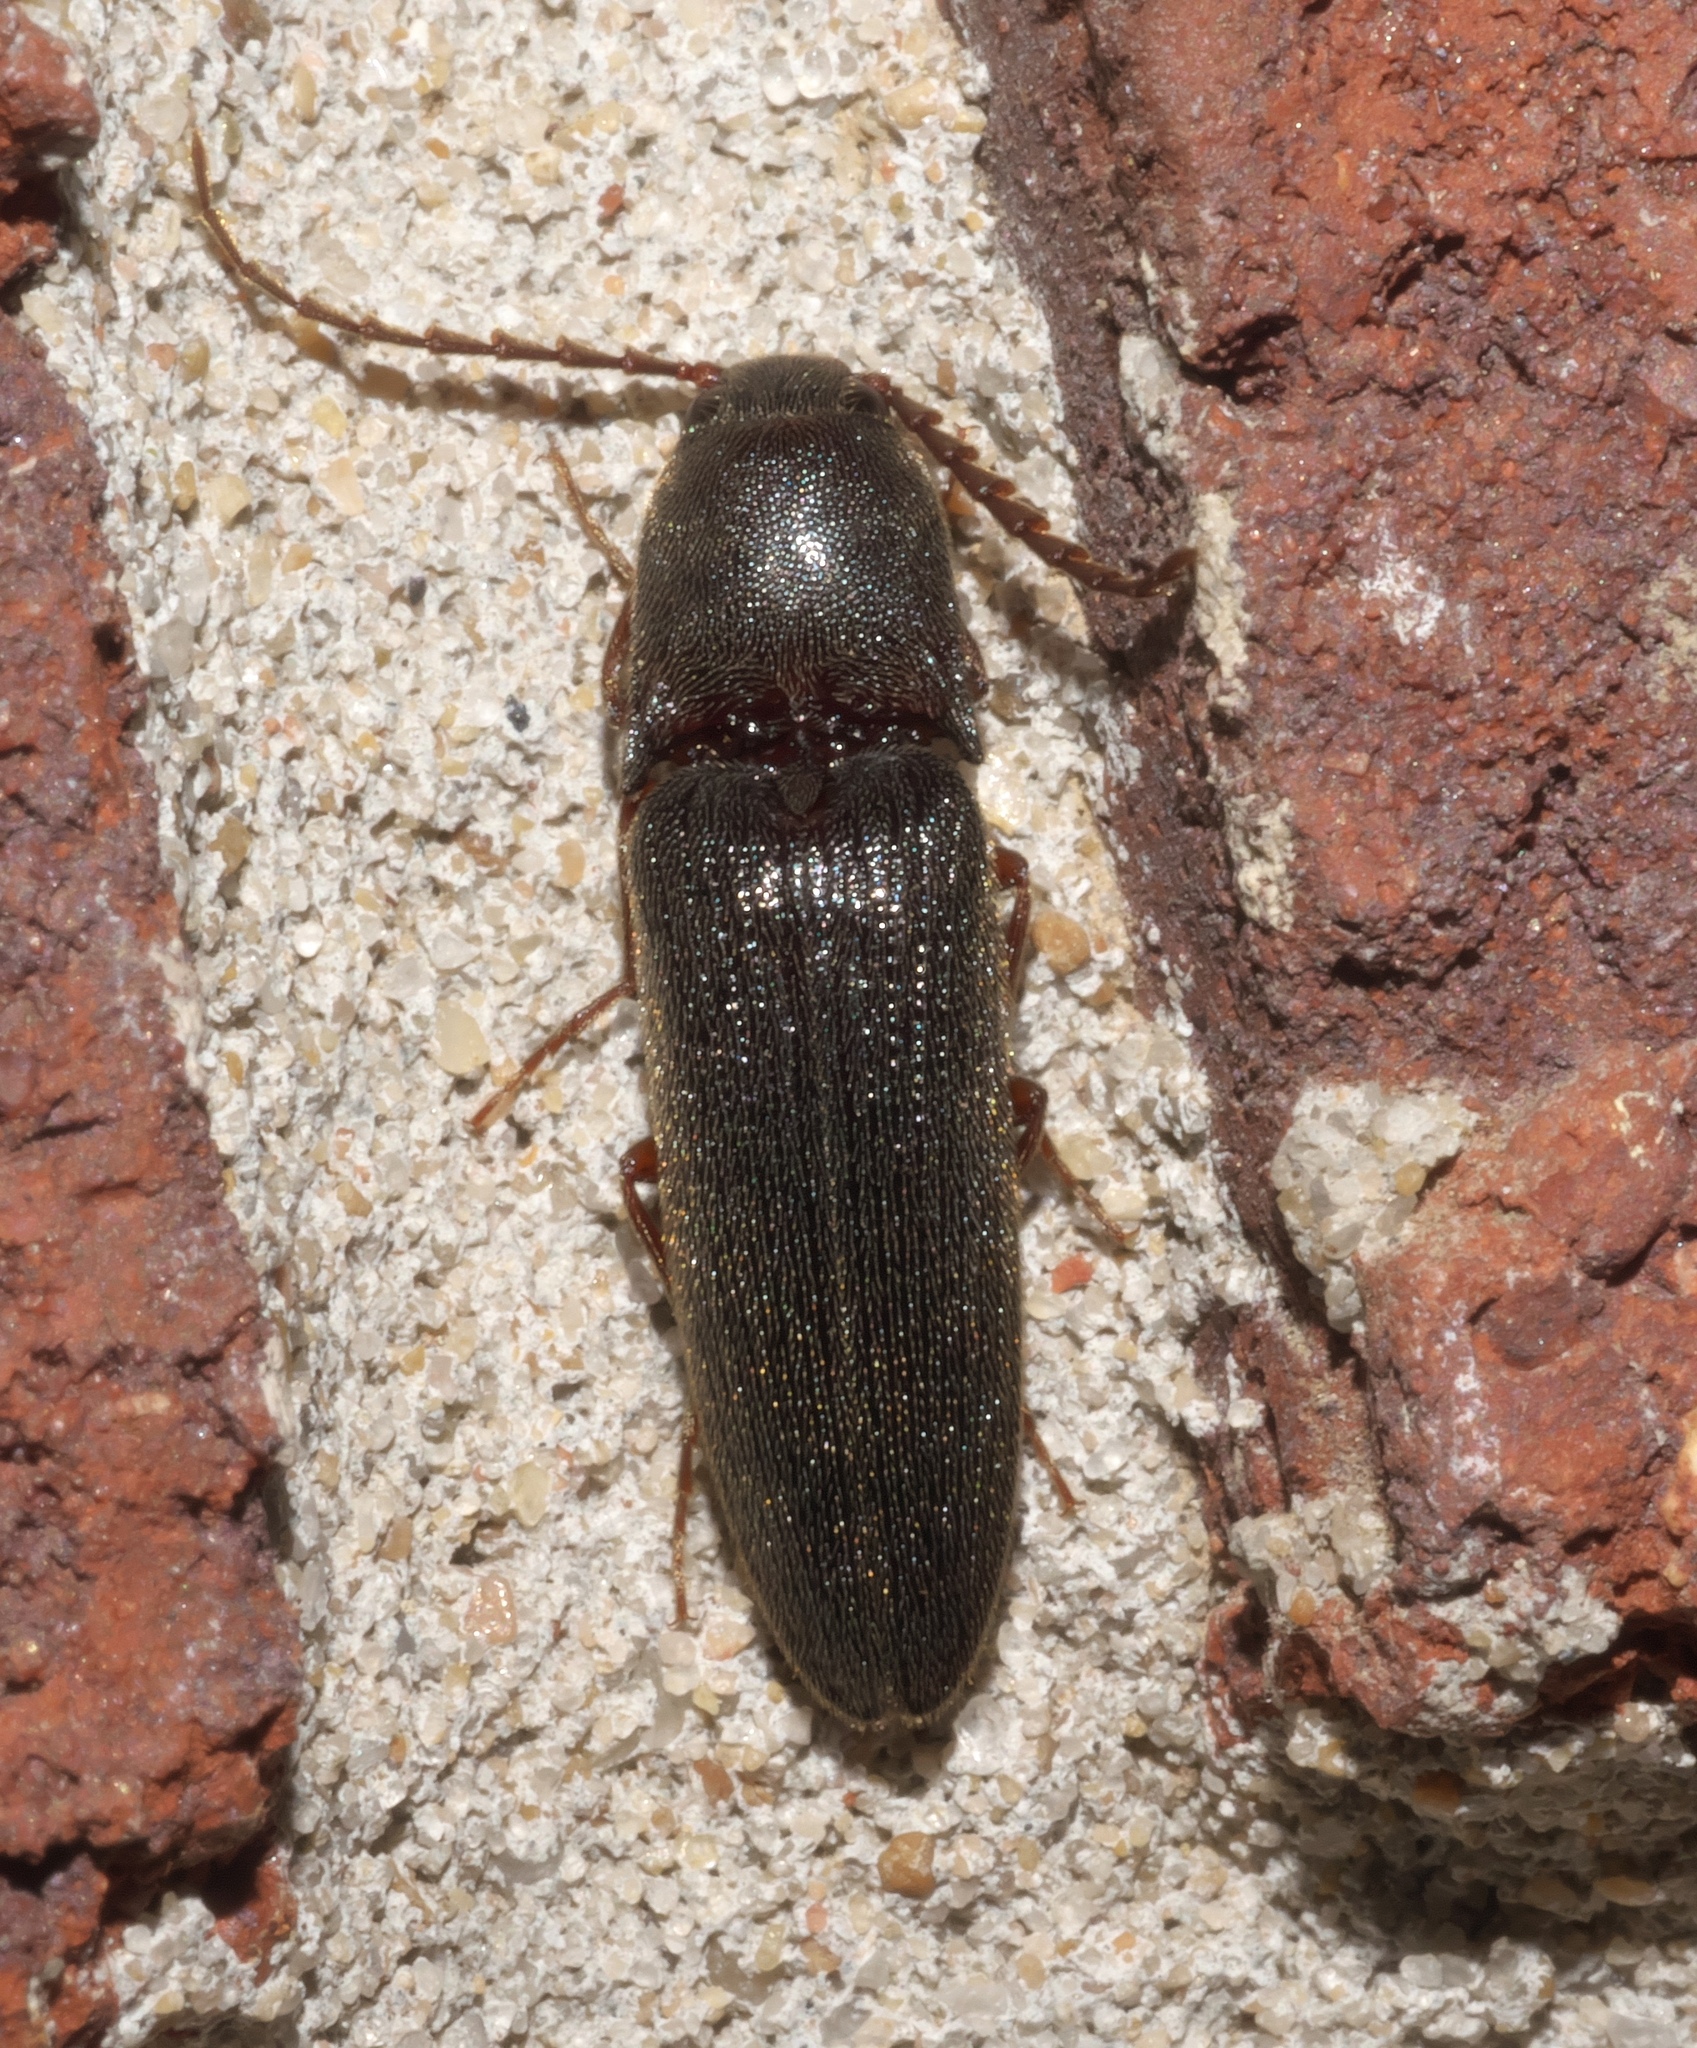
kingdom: Animalia
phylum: Arthropoda
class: Insecta
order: Coleoptera
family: Elateridae
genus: Megapenthes
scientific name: Megapenthes insignis
